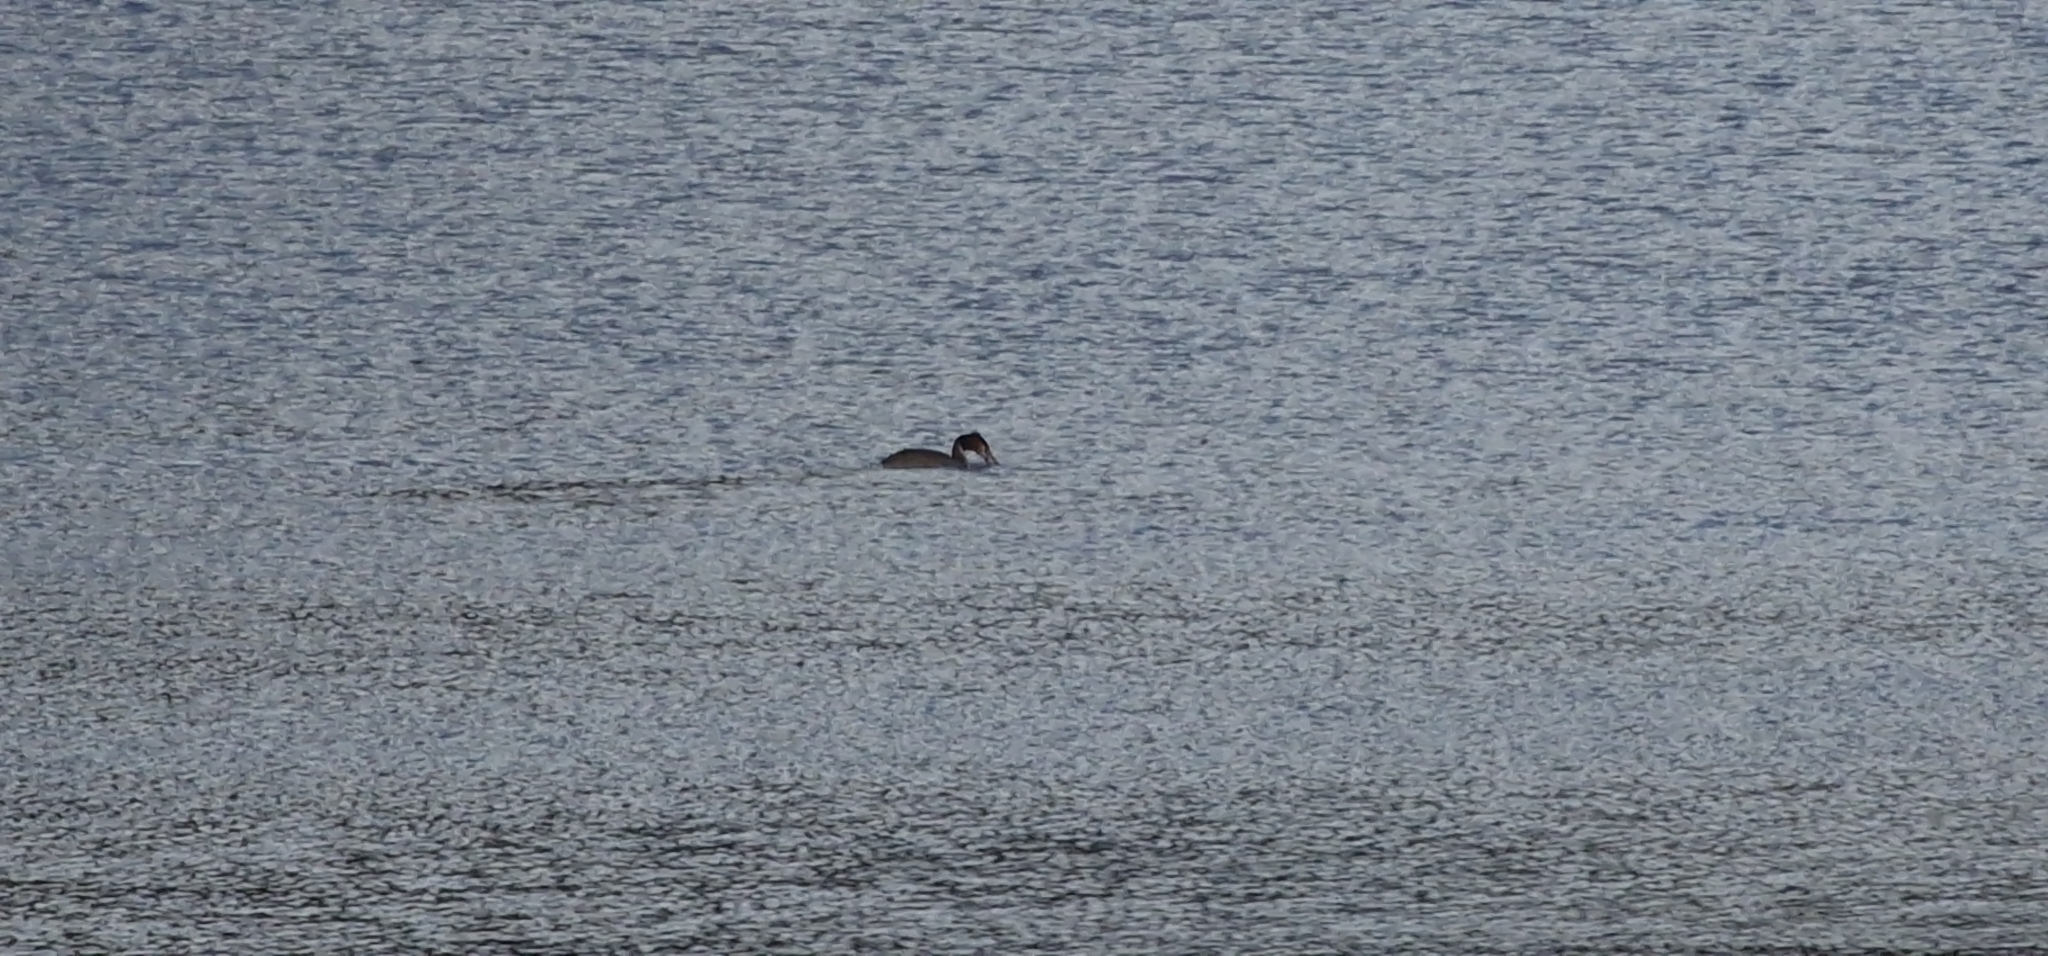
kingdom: Animalia
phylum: Chordata
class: Aves
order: Podicipediformes
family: Podicipedidae
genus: Podiceps
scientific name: Podiceps cristatus
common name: Great crested grebe
